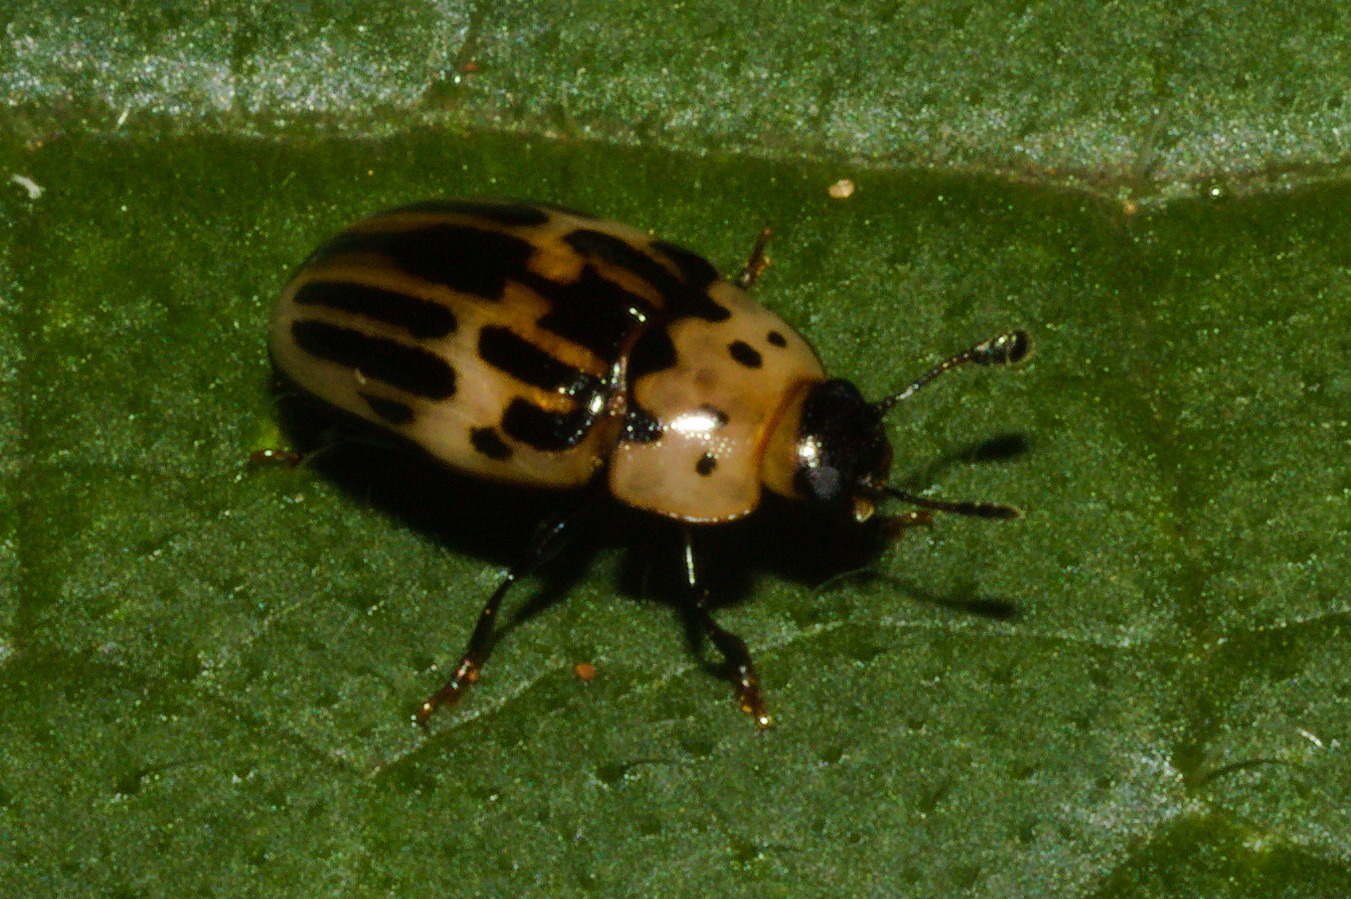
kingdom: Animalia
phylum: Arthropoda
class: Insecta
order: Coleoptera
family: Erotylidae
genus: Ischyrus
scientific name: Ischyrus
